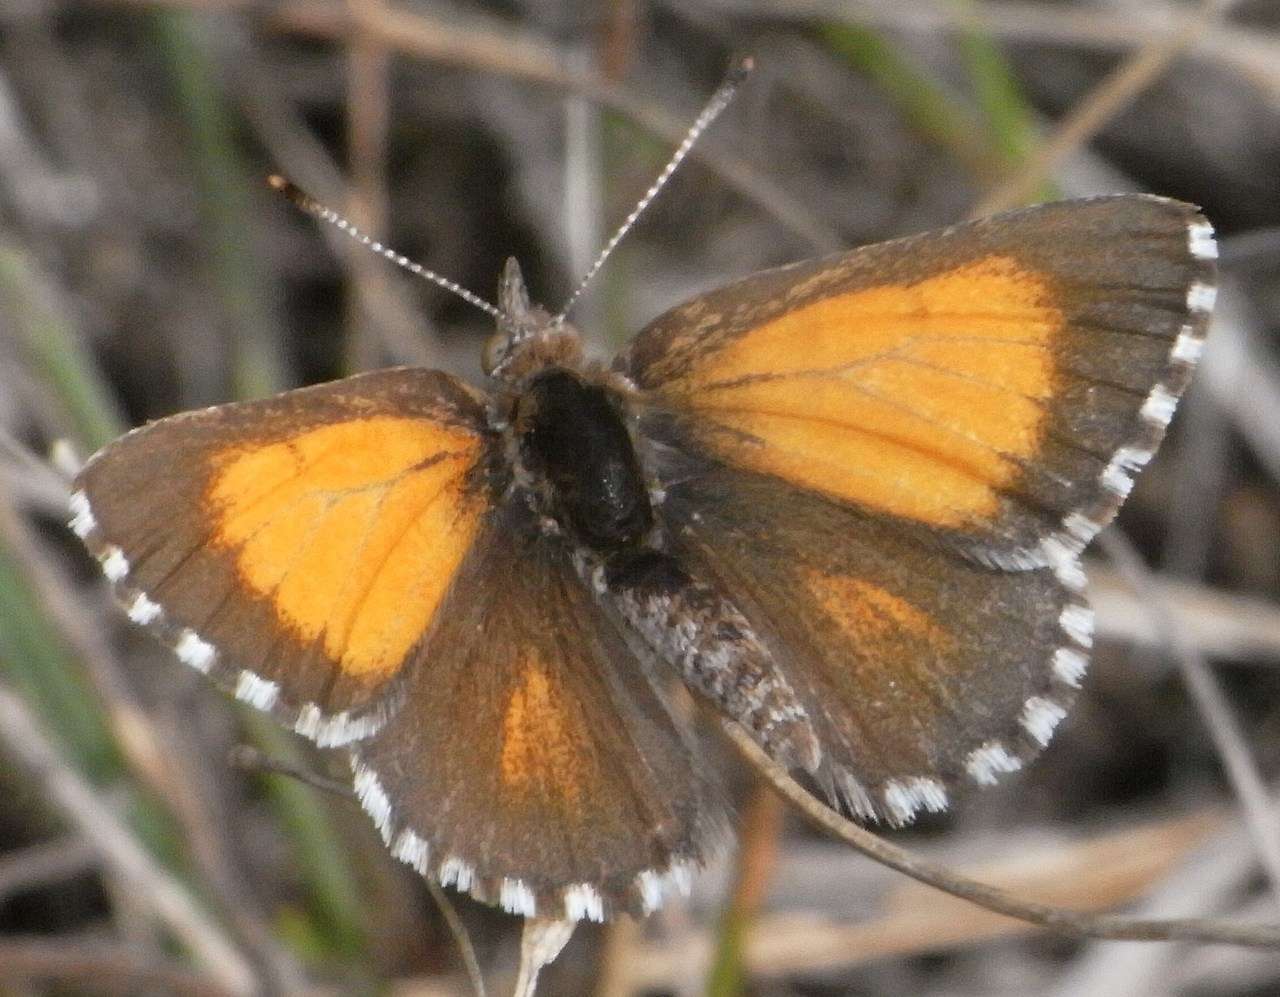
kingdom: Animalia
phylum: Arthropoda
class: Insecta
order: Lepidoptera
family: Lycaenidae
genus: Lucia
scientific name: Lucia limbaria
